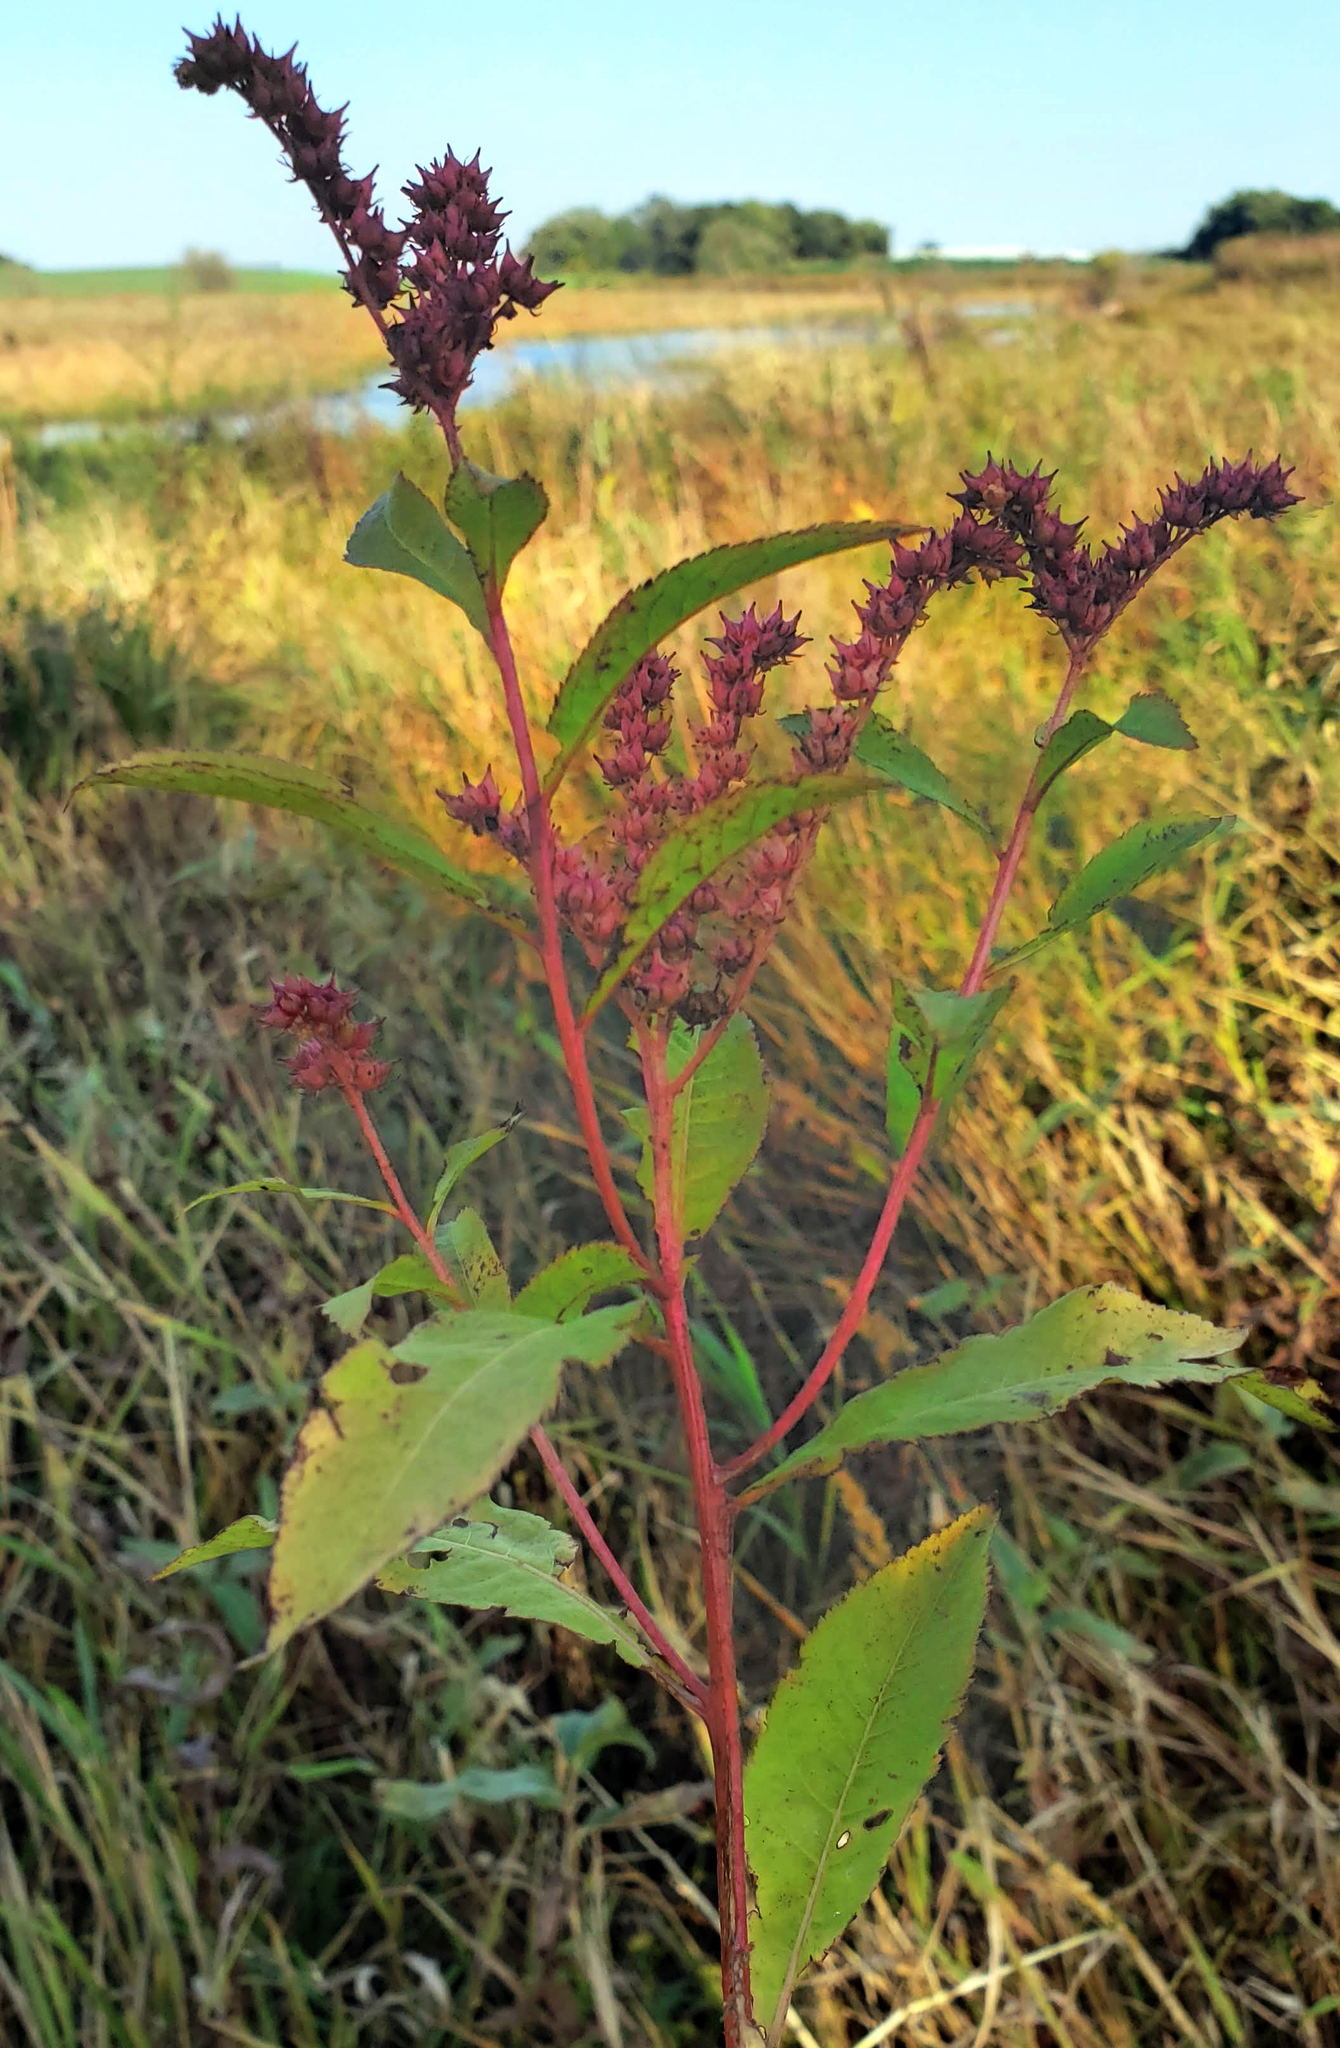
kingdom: Plantae
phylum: Tracheophyta
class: Magnoliopsida
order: Saxifragales
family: Penthoraceae
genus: Penthorum
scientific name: Penthorum sedoides
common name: Ditch stonecrop
